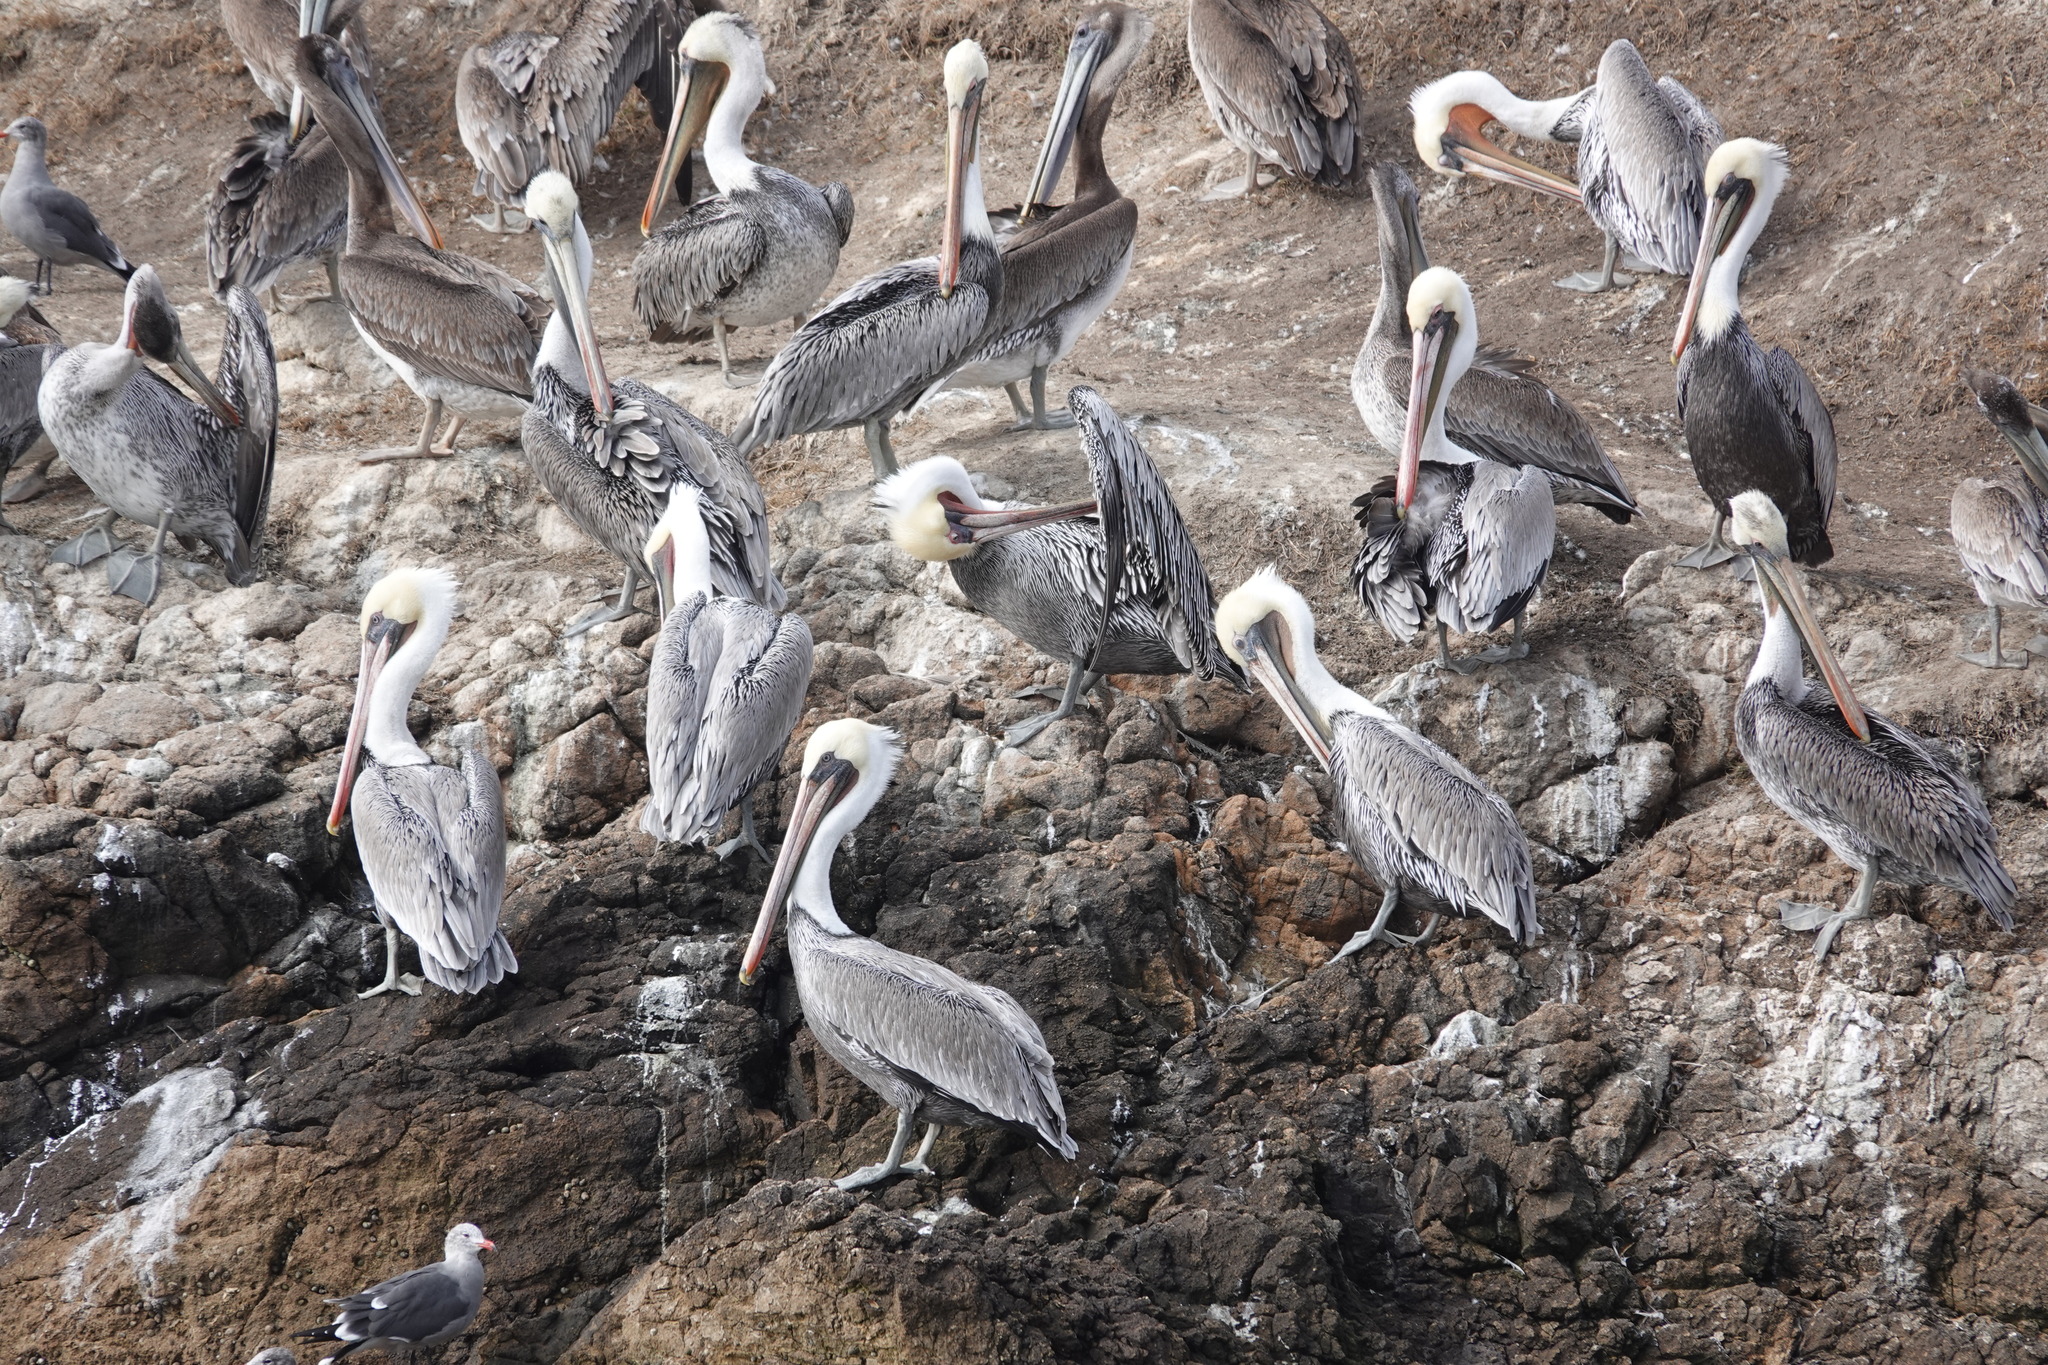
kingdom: Animalia
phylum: Chordata
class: Aves
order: Pelecaniformes
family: Pelecanidae
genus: Pelecanus
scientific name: Pelecanus occidentalis
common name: Brown pelican
